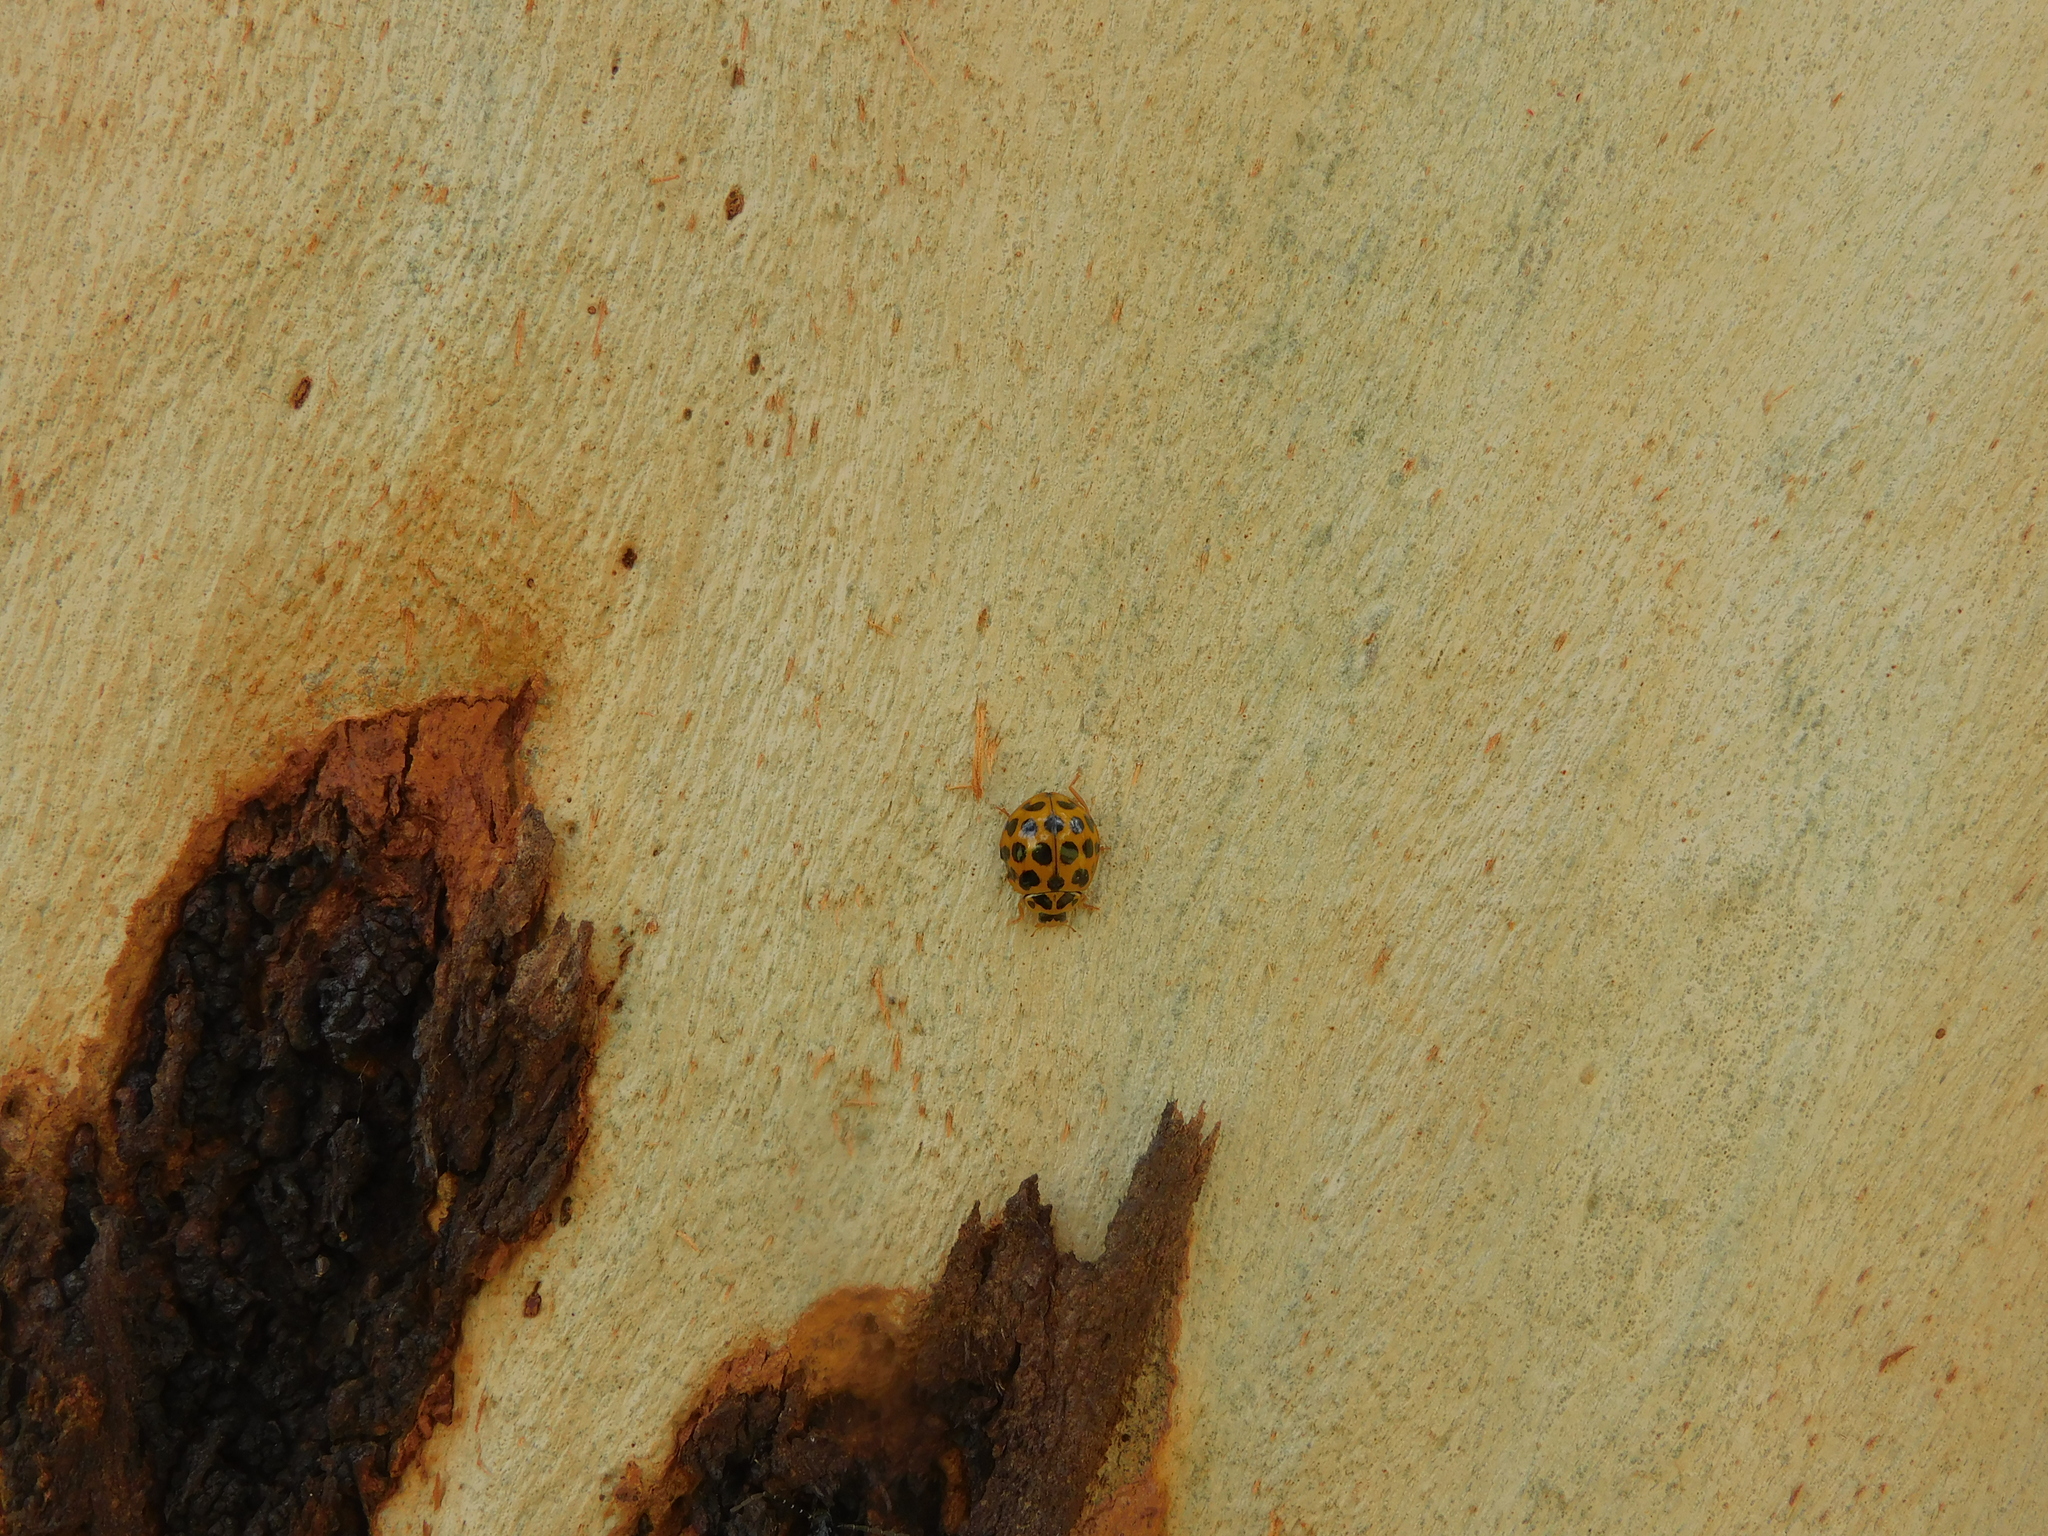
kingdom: Animalia
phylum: Arthropoda
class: Insecta
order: Coleoptera
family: Coccinellidae
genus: Harmonia
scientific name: Harmonia conformis
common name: Common spotted ladybird beetle
